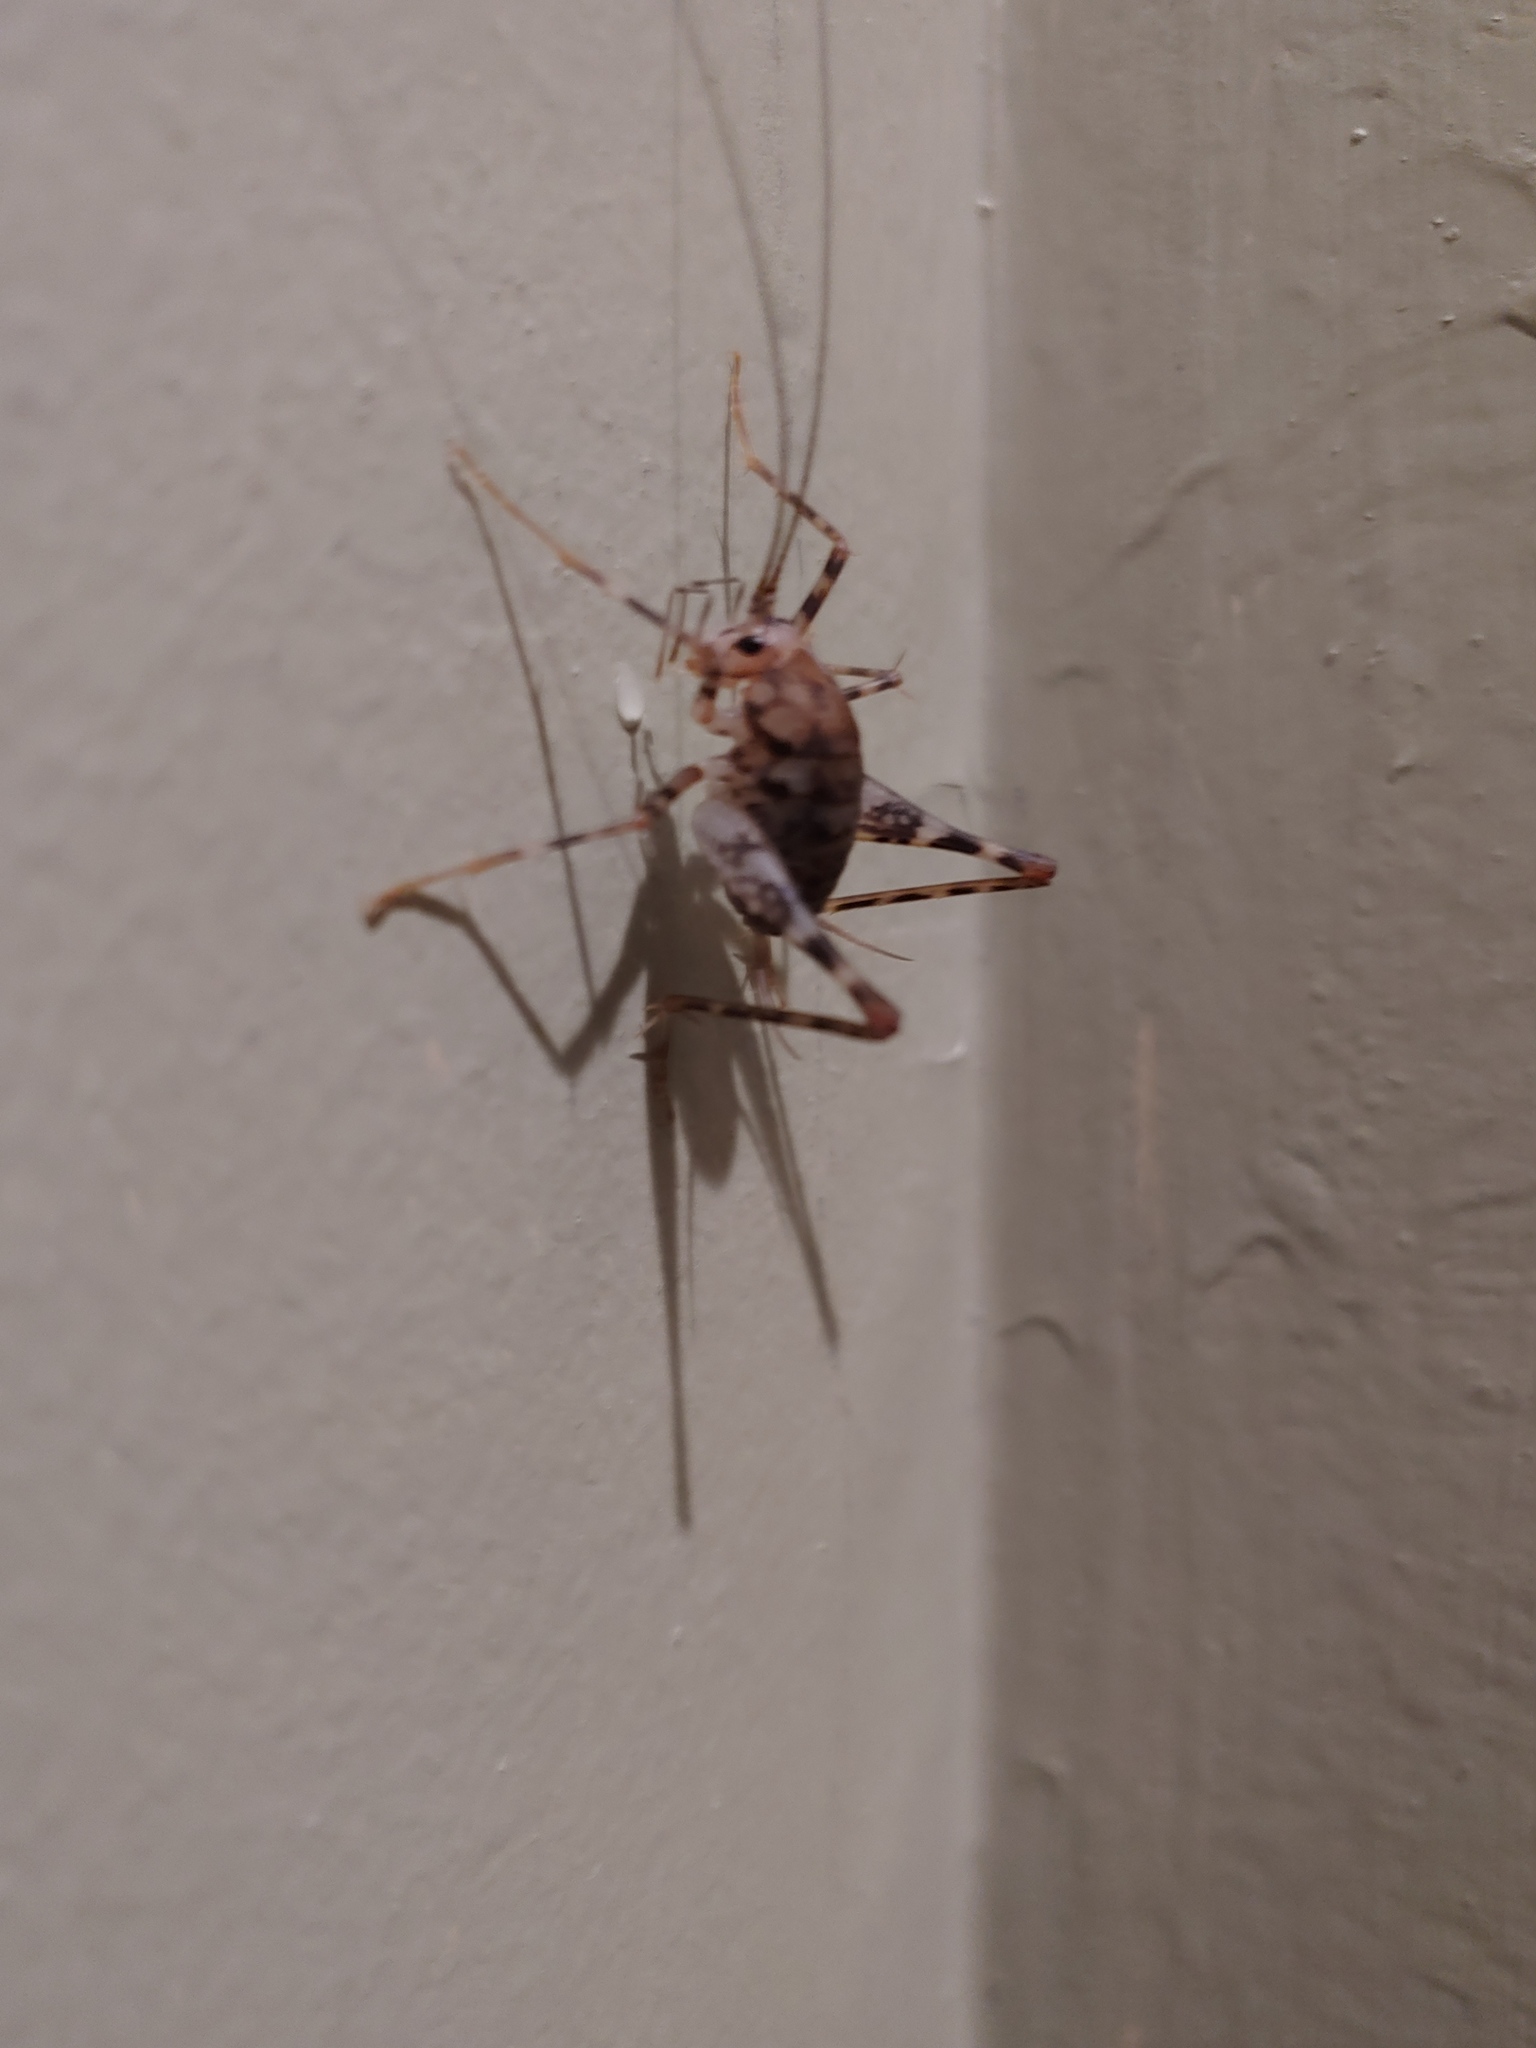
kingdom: Animalia
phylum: Arthropoda
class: Insecta
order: Orthoptera
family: Rhaphidophoridae
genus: Tachycines
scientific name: Tachycines asynamorus
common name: Greenhouse camel cricket
